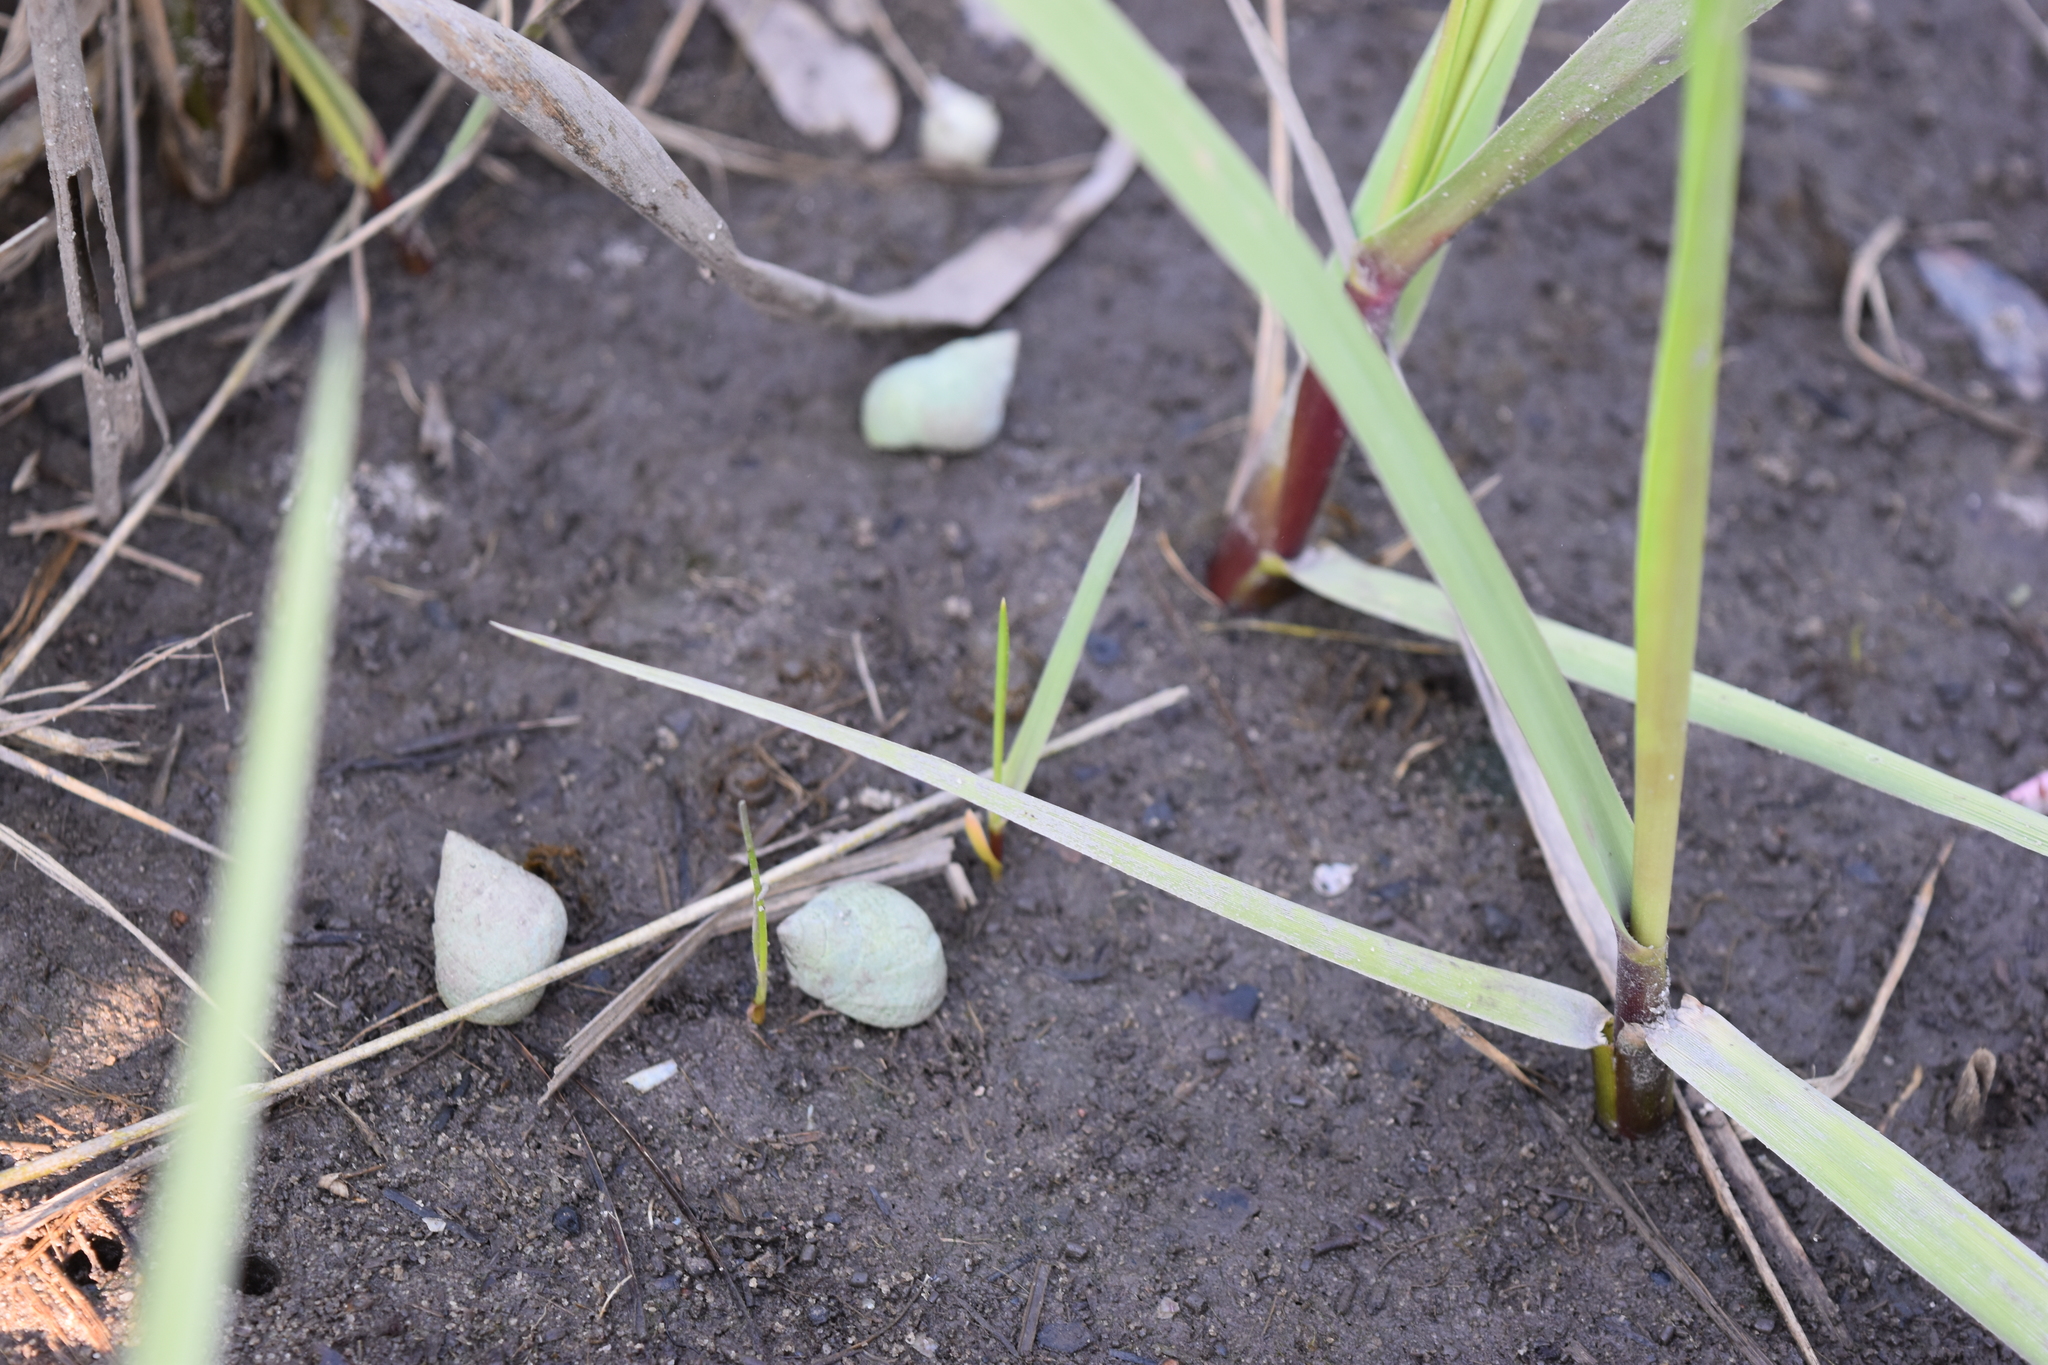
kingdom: Animalia
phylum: Mollusca
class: Gastropoda
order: Littorinimorpha
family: Littorinidae
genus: Littoraria
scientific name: Littoraria irrorata
